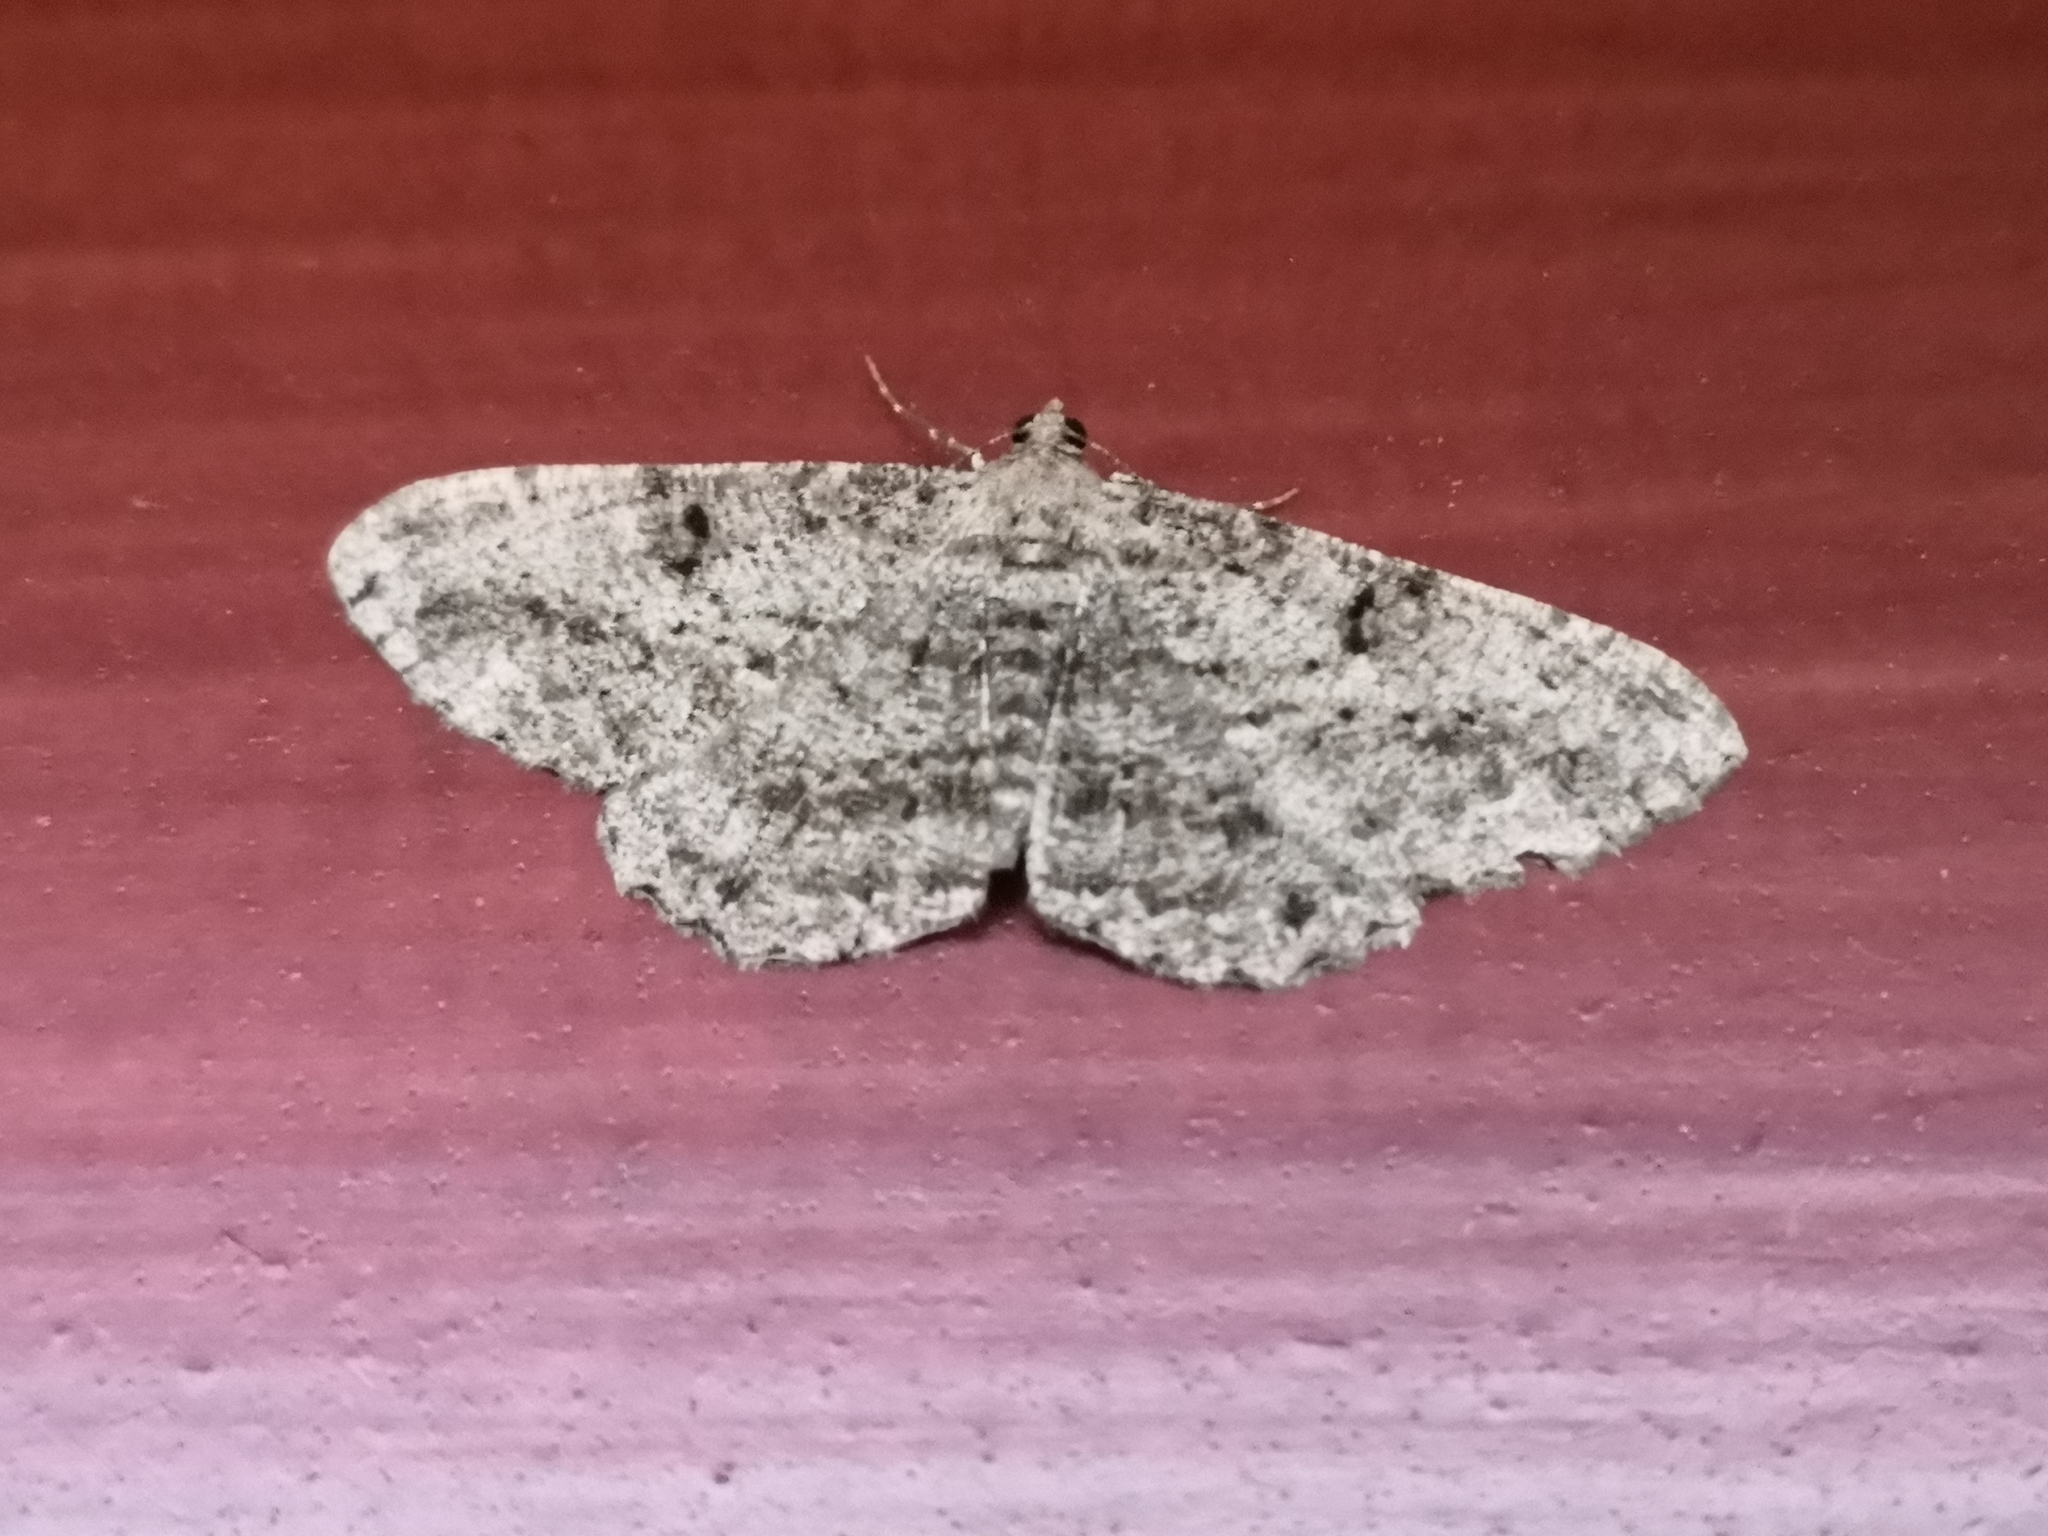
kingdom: Animalia
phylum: Arthropoda
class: Insecta
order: Lepidoptera
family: Geometridae
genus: Peribatodes
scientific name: Peribatodes rhomboidaria
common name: Willow beauty
